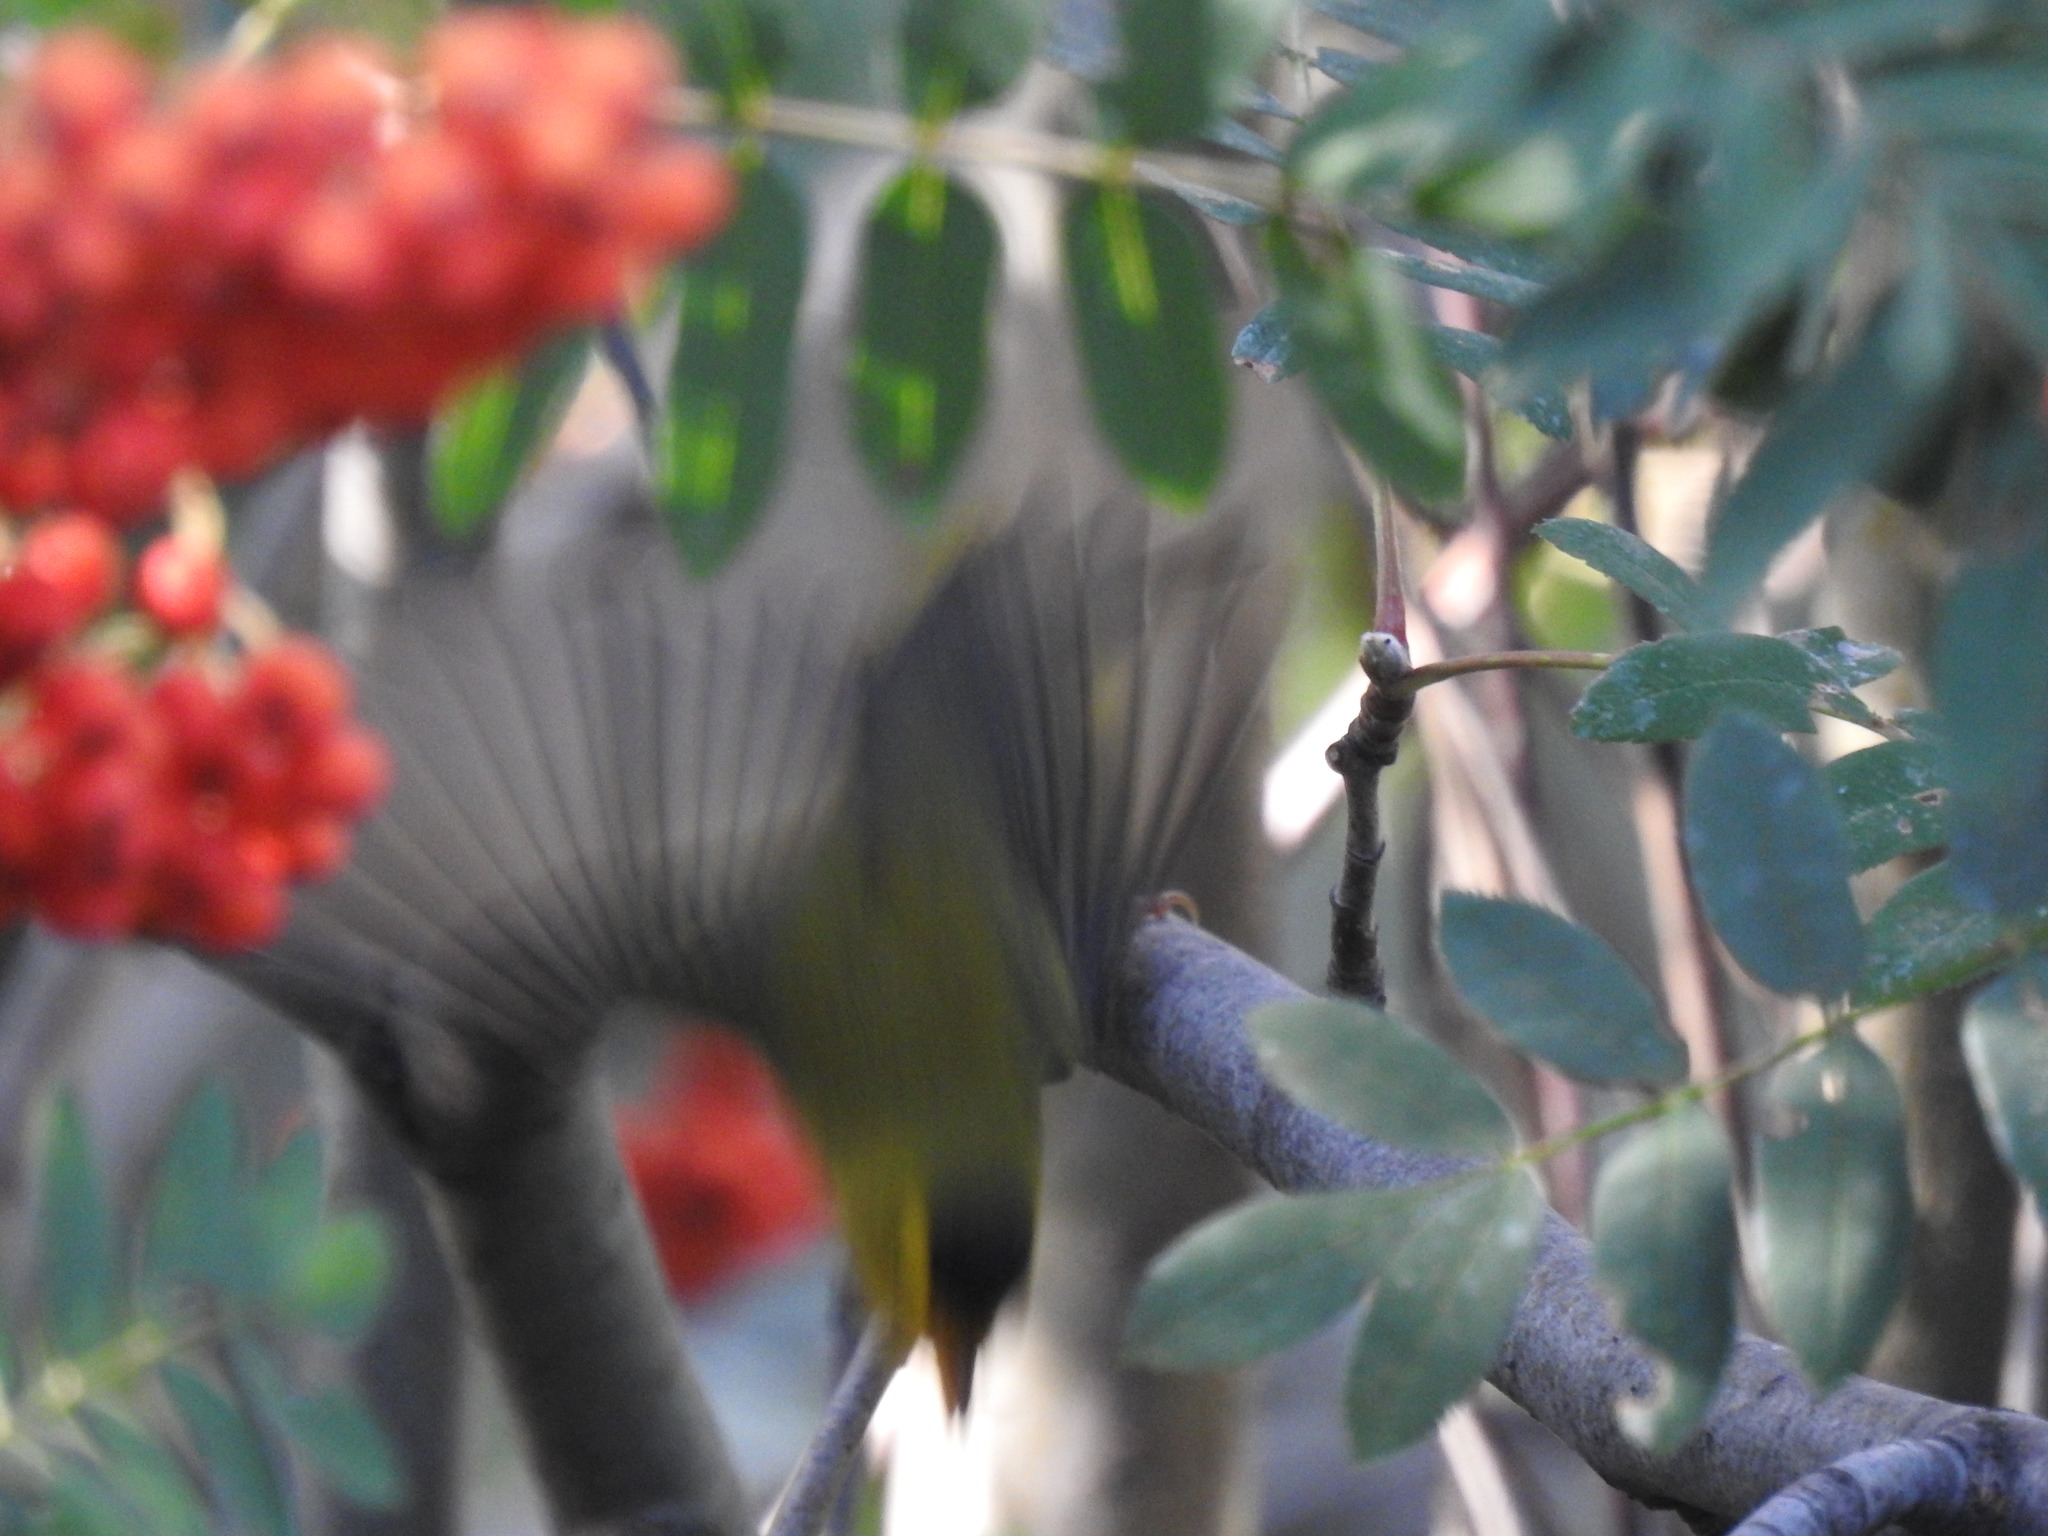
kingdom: Animalia
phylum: Chordata
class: Aves
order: Passeriformes
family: Parulidae
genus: Cardellina
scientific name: Cardellina pusilla
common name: Wilson's warbler
